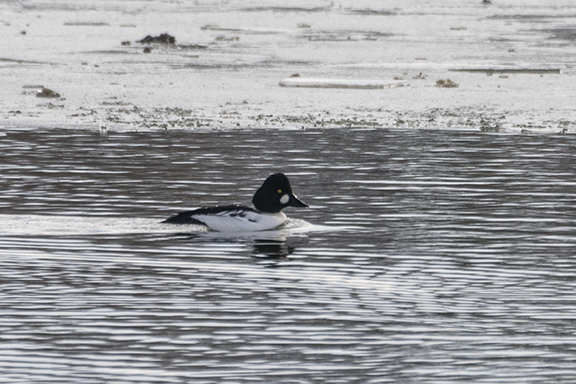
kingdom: Animalia
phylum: Chordata
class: Aves
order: Anseriformes
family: Anatidae
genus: Bucephala
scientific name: Bucephala clangula
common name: Common goldeneye
